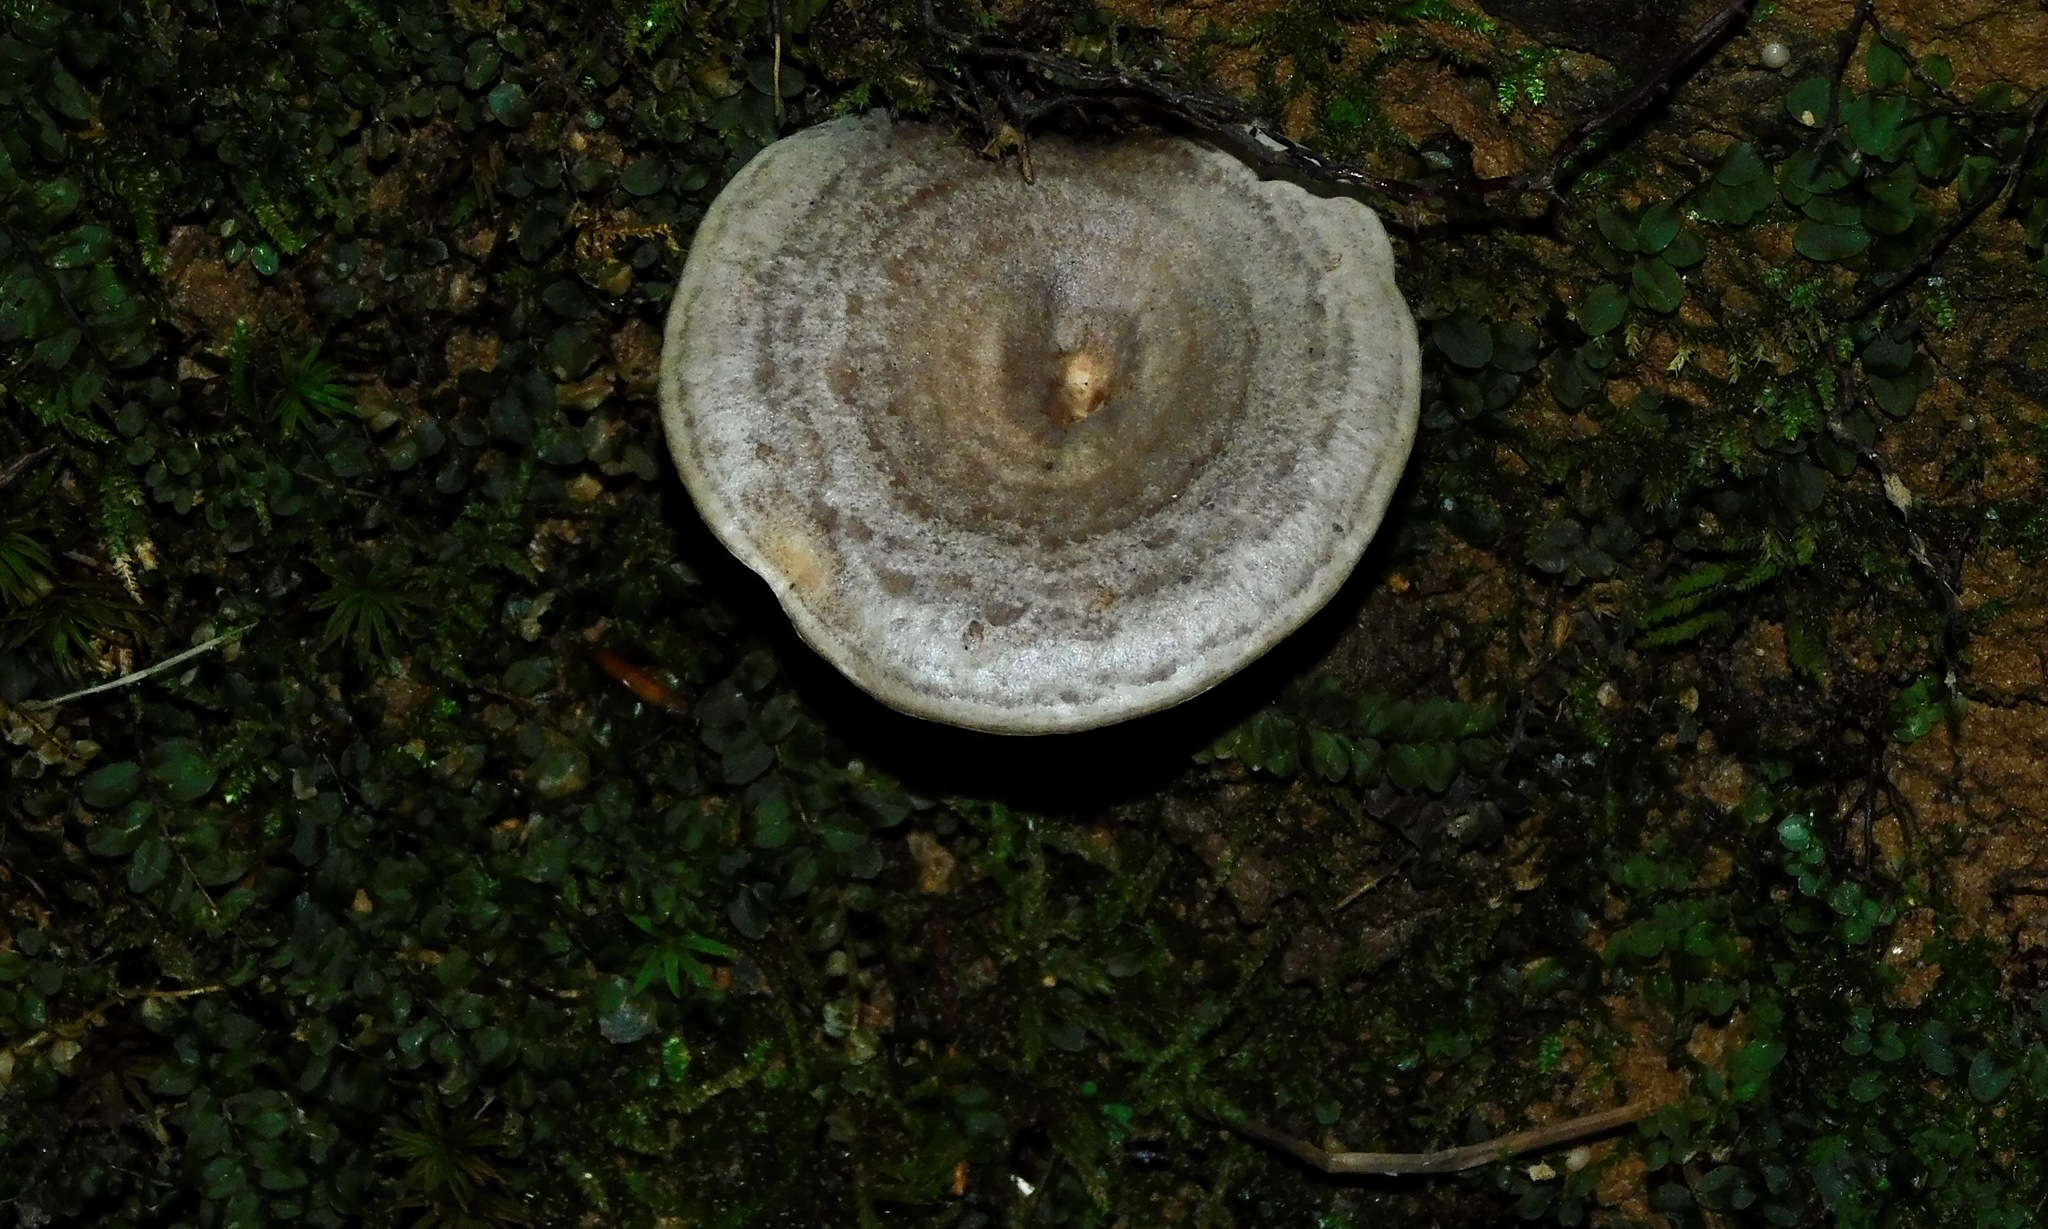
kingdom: Fungi
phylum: Basidiomycota
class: Agaricomycetes
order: Russulales
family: Russulaceae
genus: Lactarius
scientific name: Lactarius paradoxus
